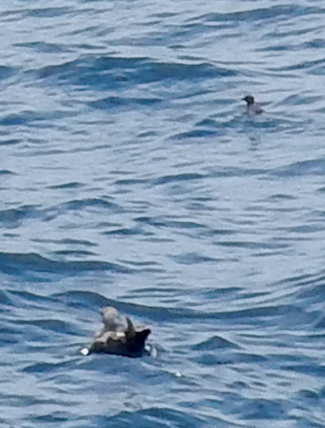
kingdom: Animalia
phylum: Chordata
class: Aves
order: Charadriiformes
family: Alcidae
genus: Ptychoramphus
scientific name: Ptychoramphus aleuticus
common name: Cassin's auklet
